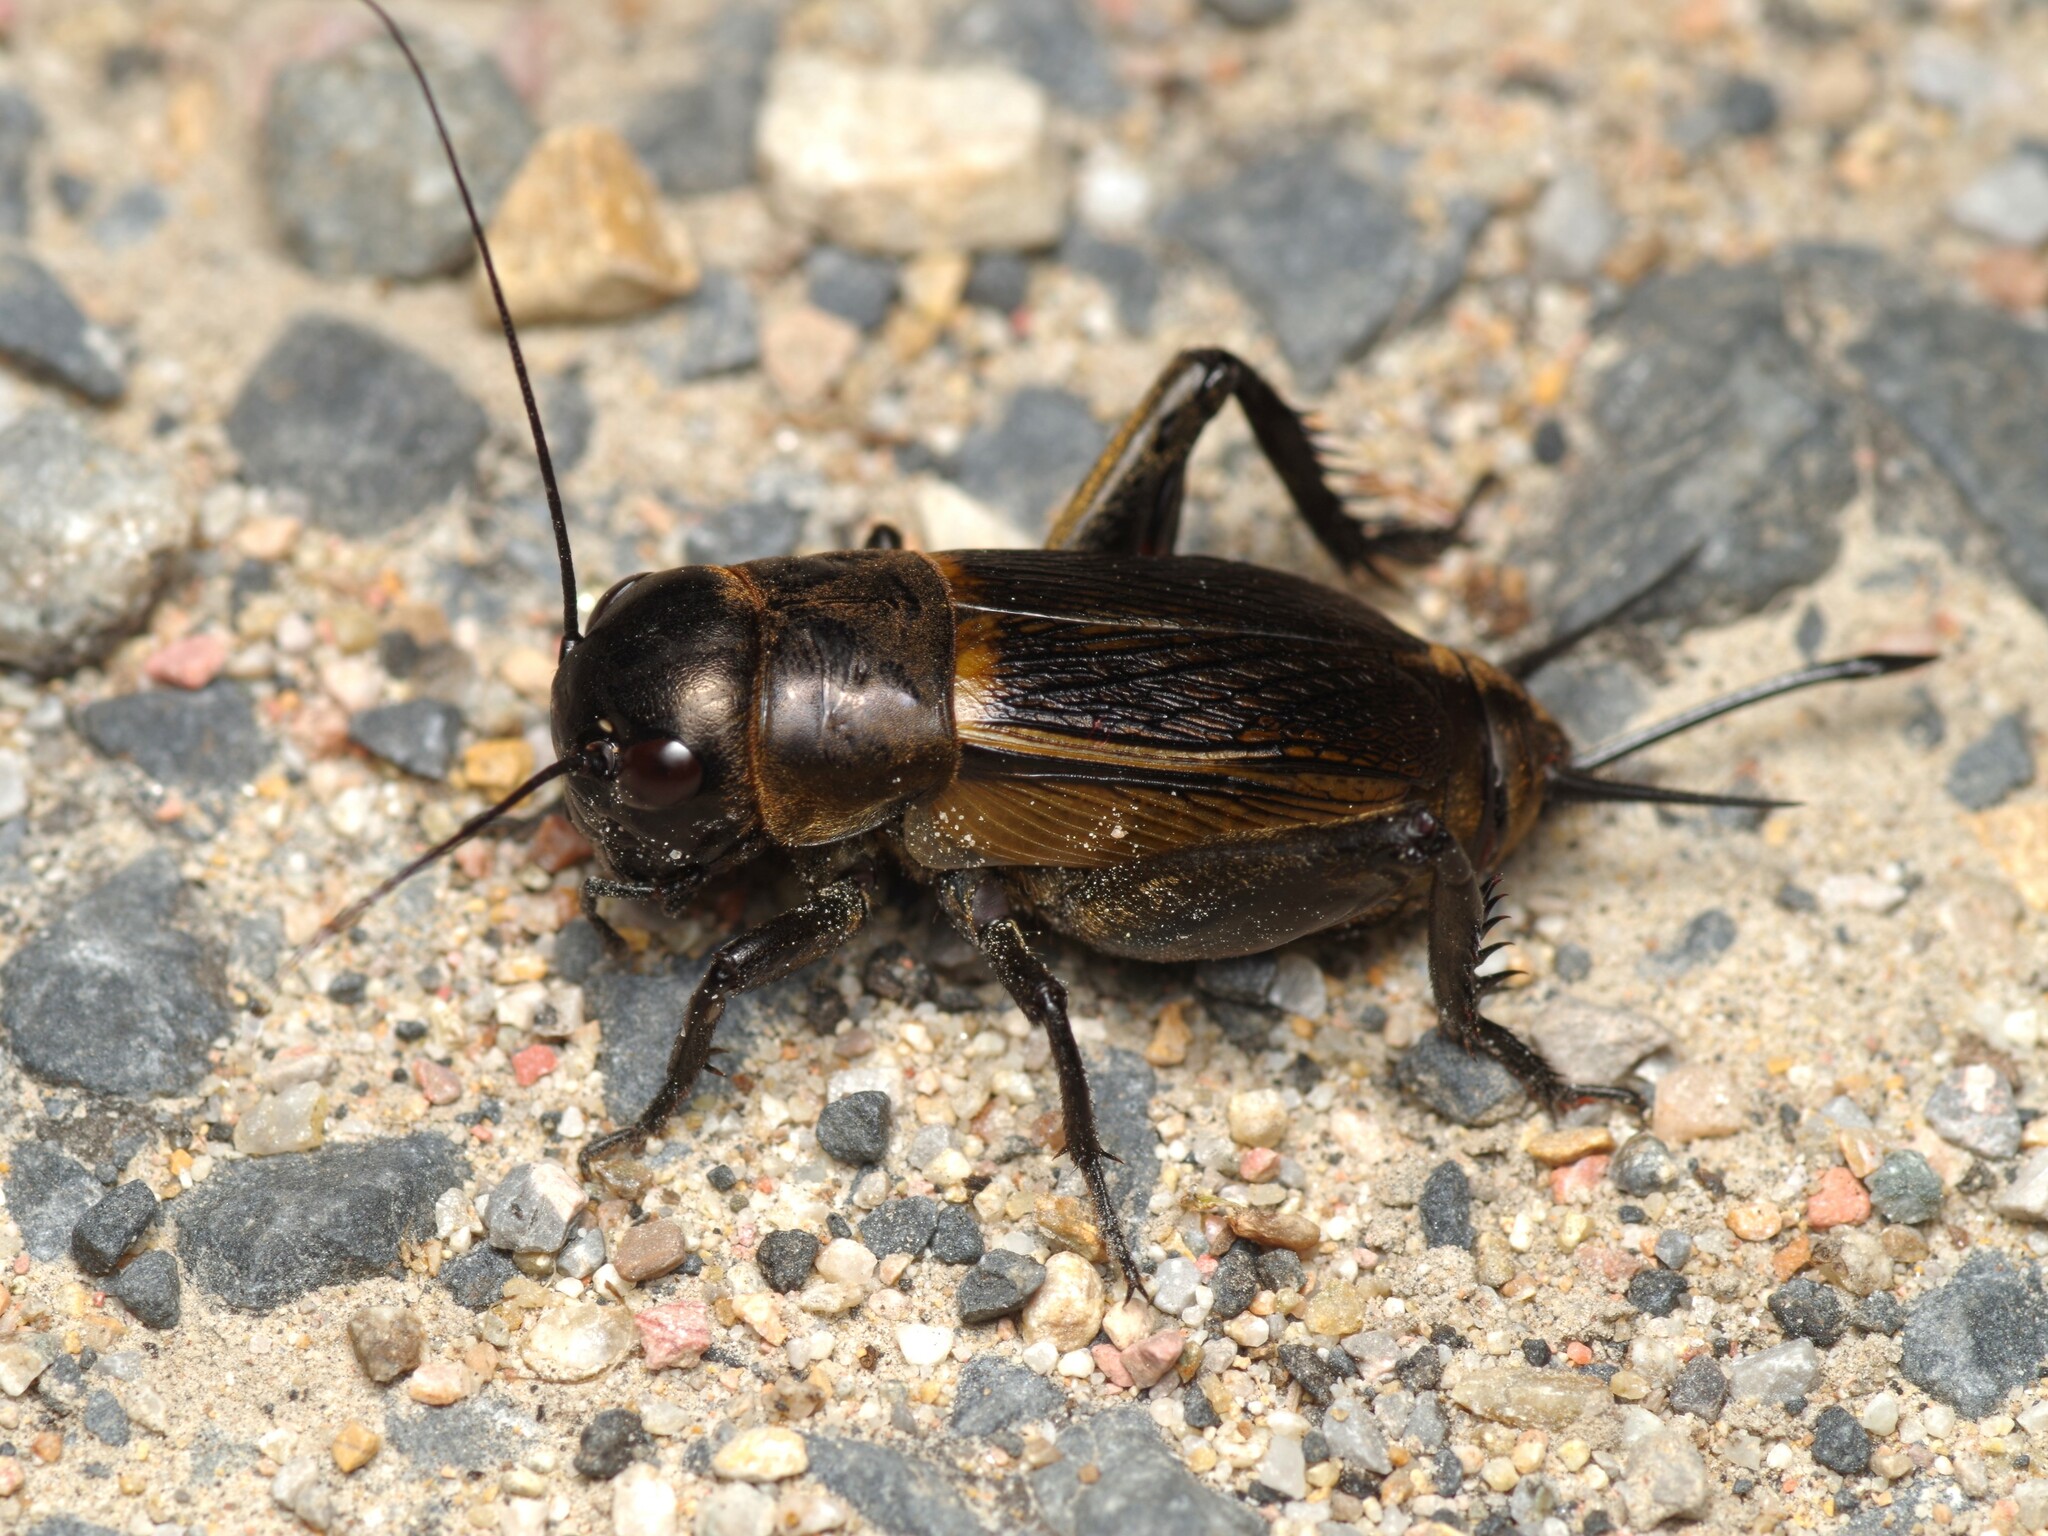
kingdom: Animalia
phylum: Arthropoda
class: Insecta
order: Orthoptera
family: Gryllidae
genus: Gryllus
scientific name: Gryllus campestris
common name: Field cricket
